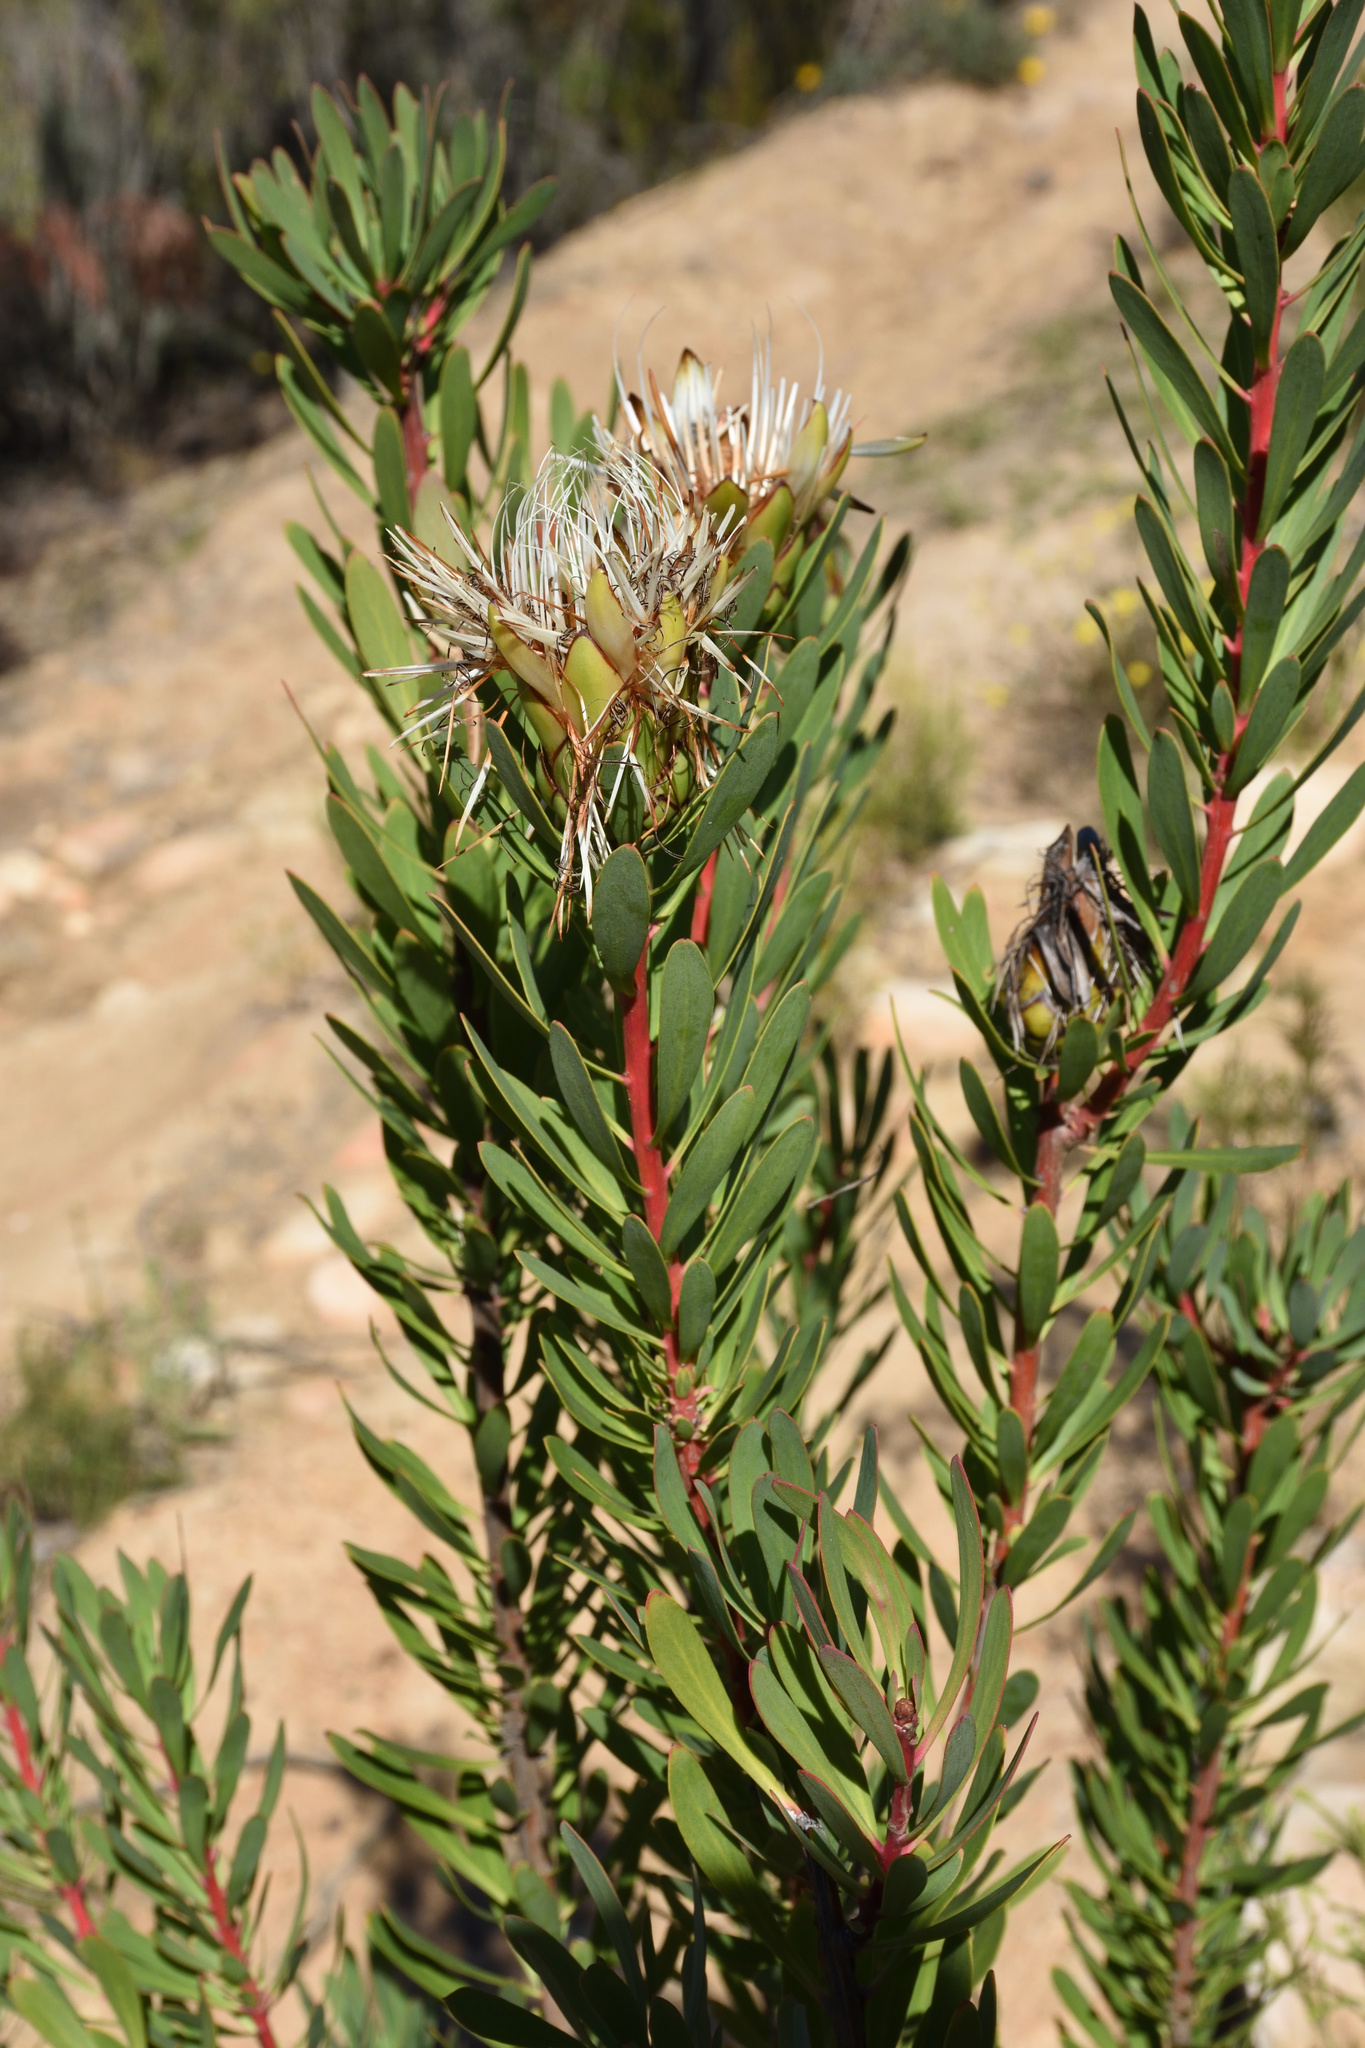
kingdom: Plantae
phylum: Tracheophyta
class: Magnoliopsida
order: Proteales
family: Proteaceae
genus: Protea
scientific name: Protea lanceolata
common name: Lance-leaved protea
